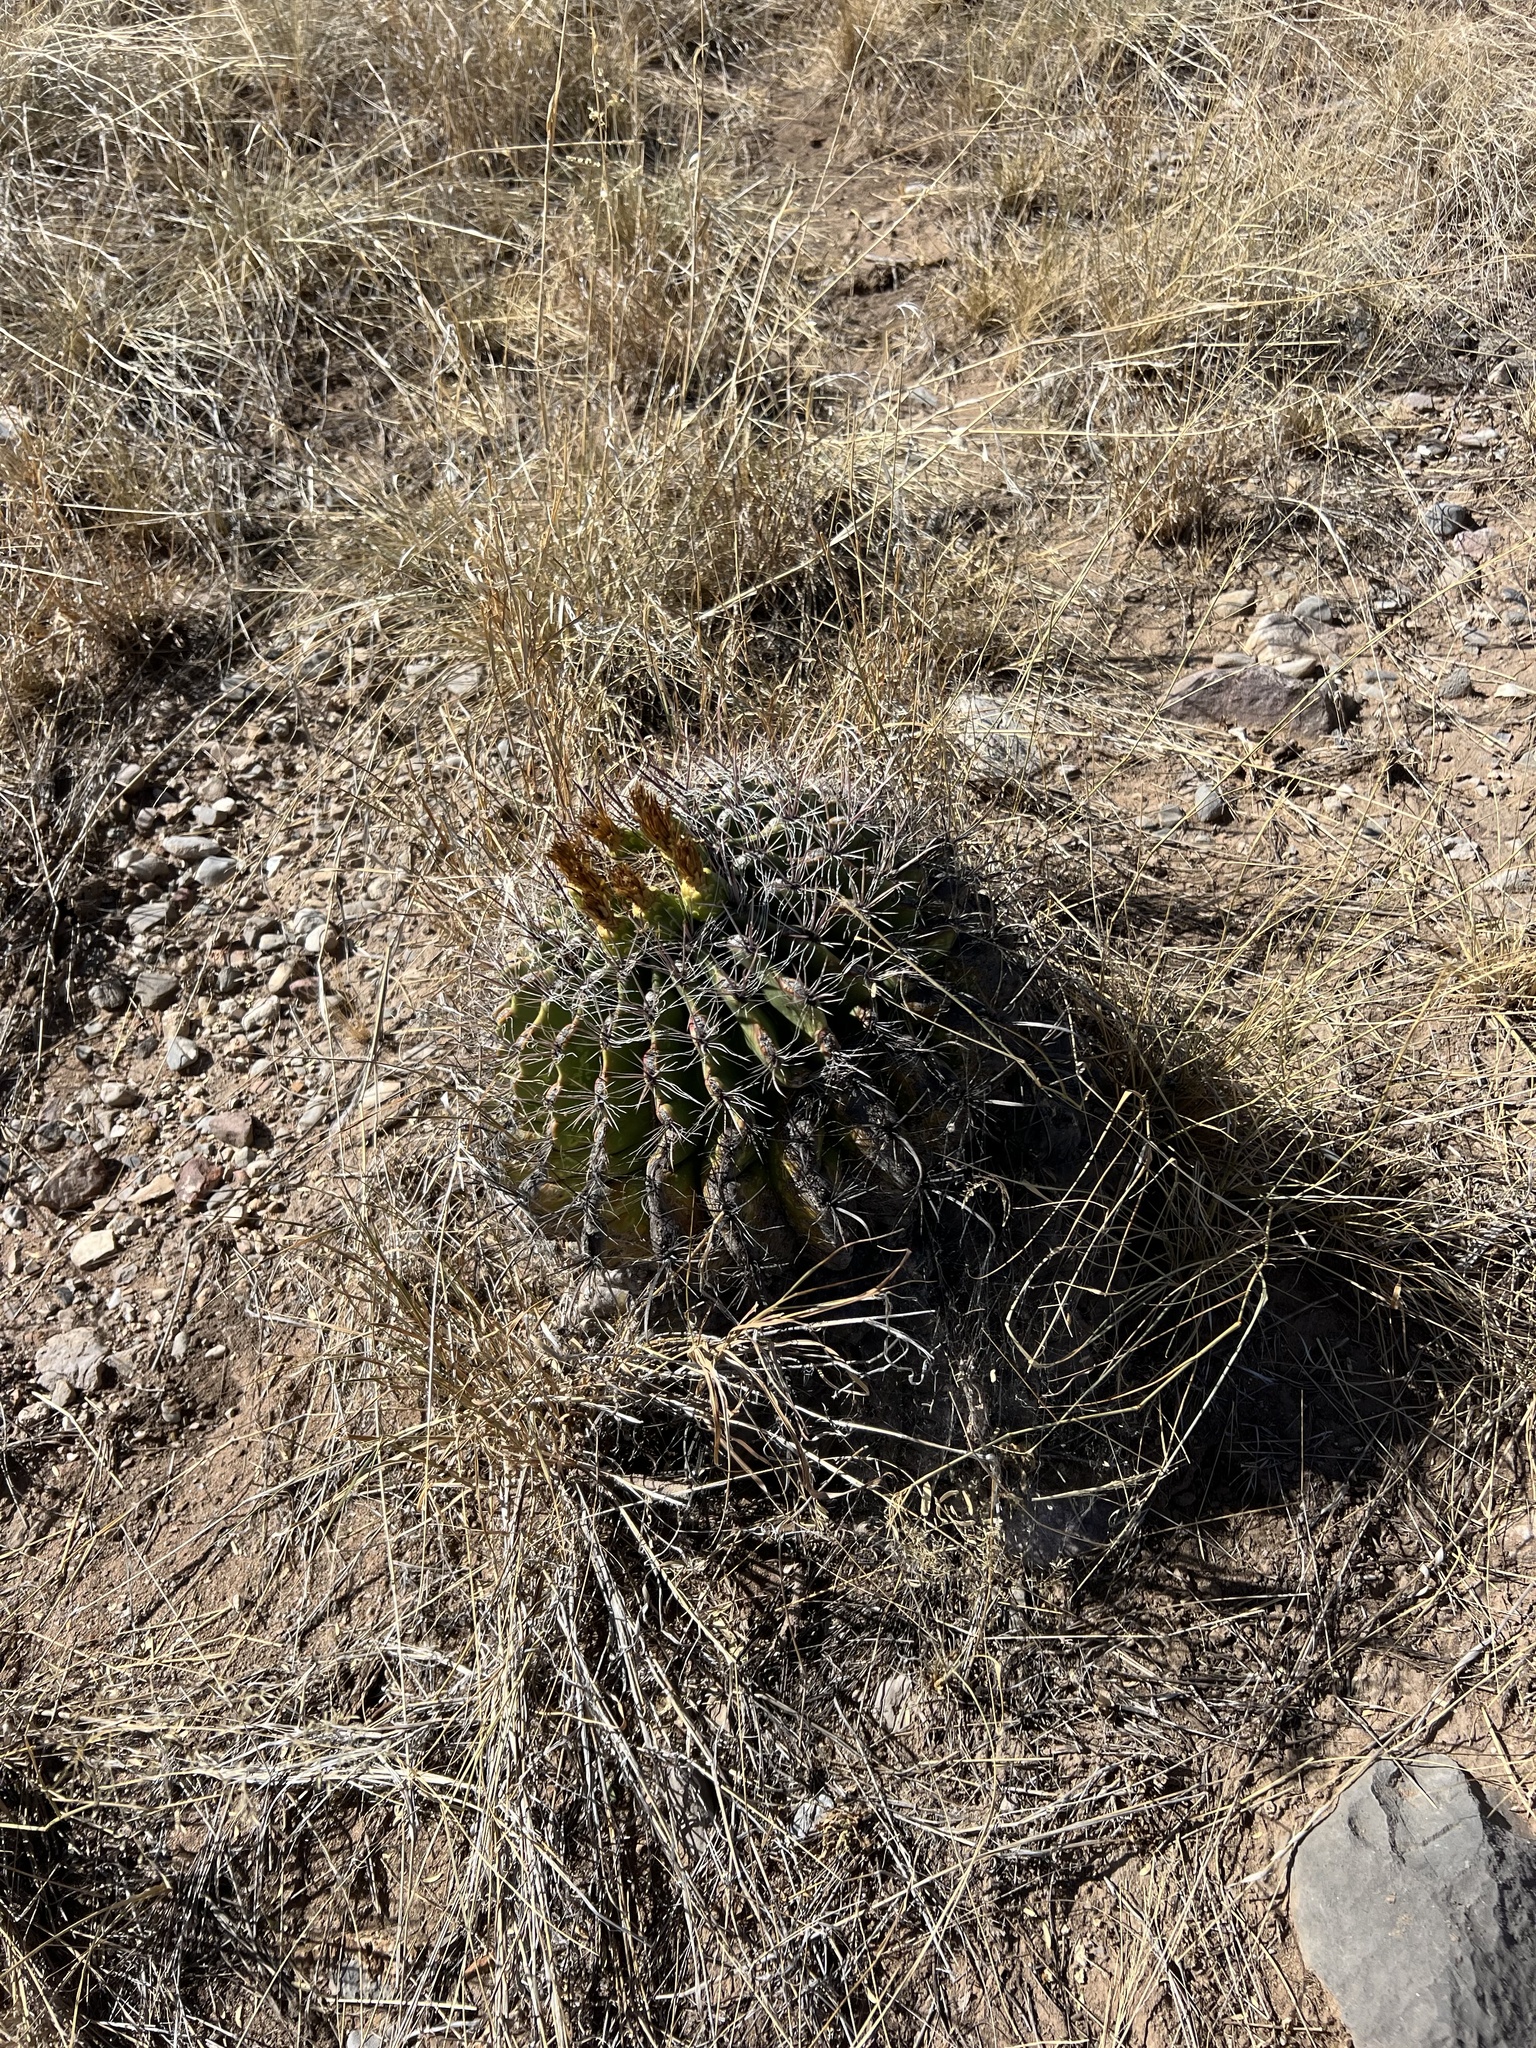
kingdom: Plantae
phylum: Tracheophyta
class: Magnoliopsida
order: Caryophyllales
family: Cactaceae
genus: Ferocactus
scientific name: Ferocactus wislizeni
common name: Candy barrel cactus
